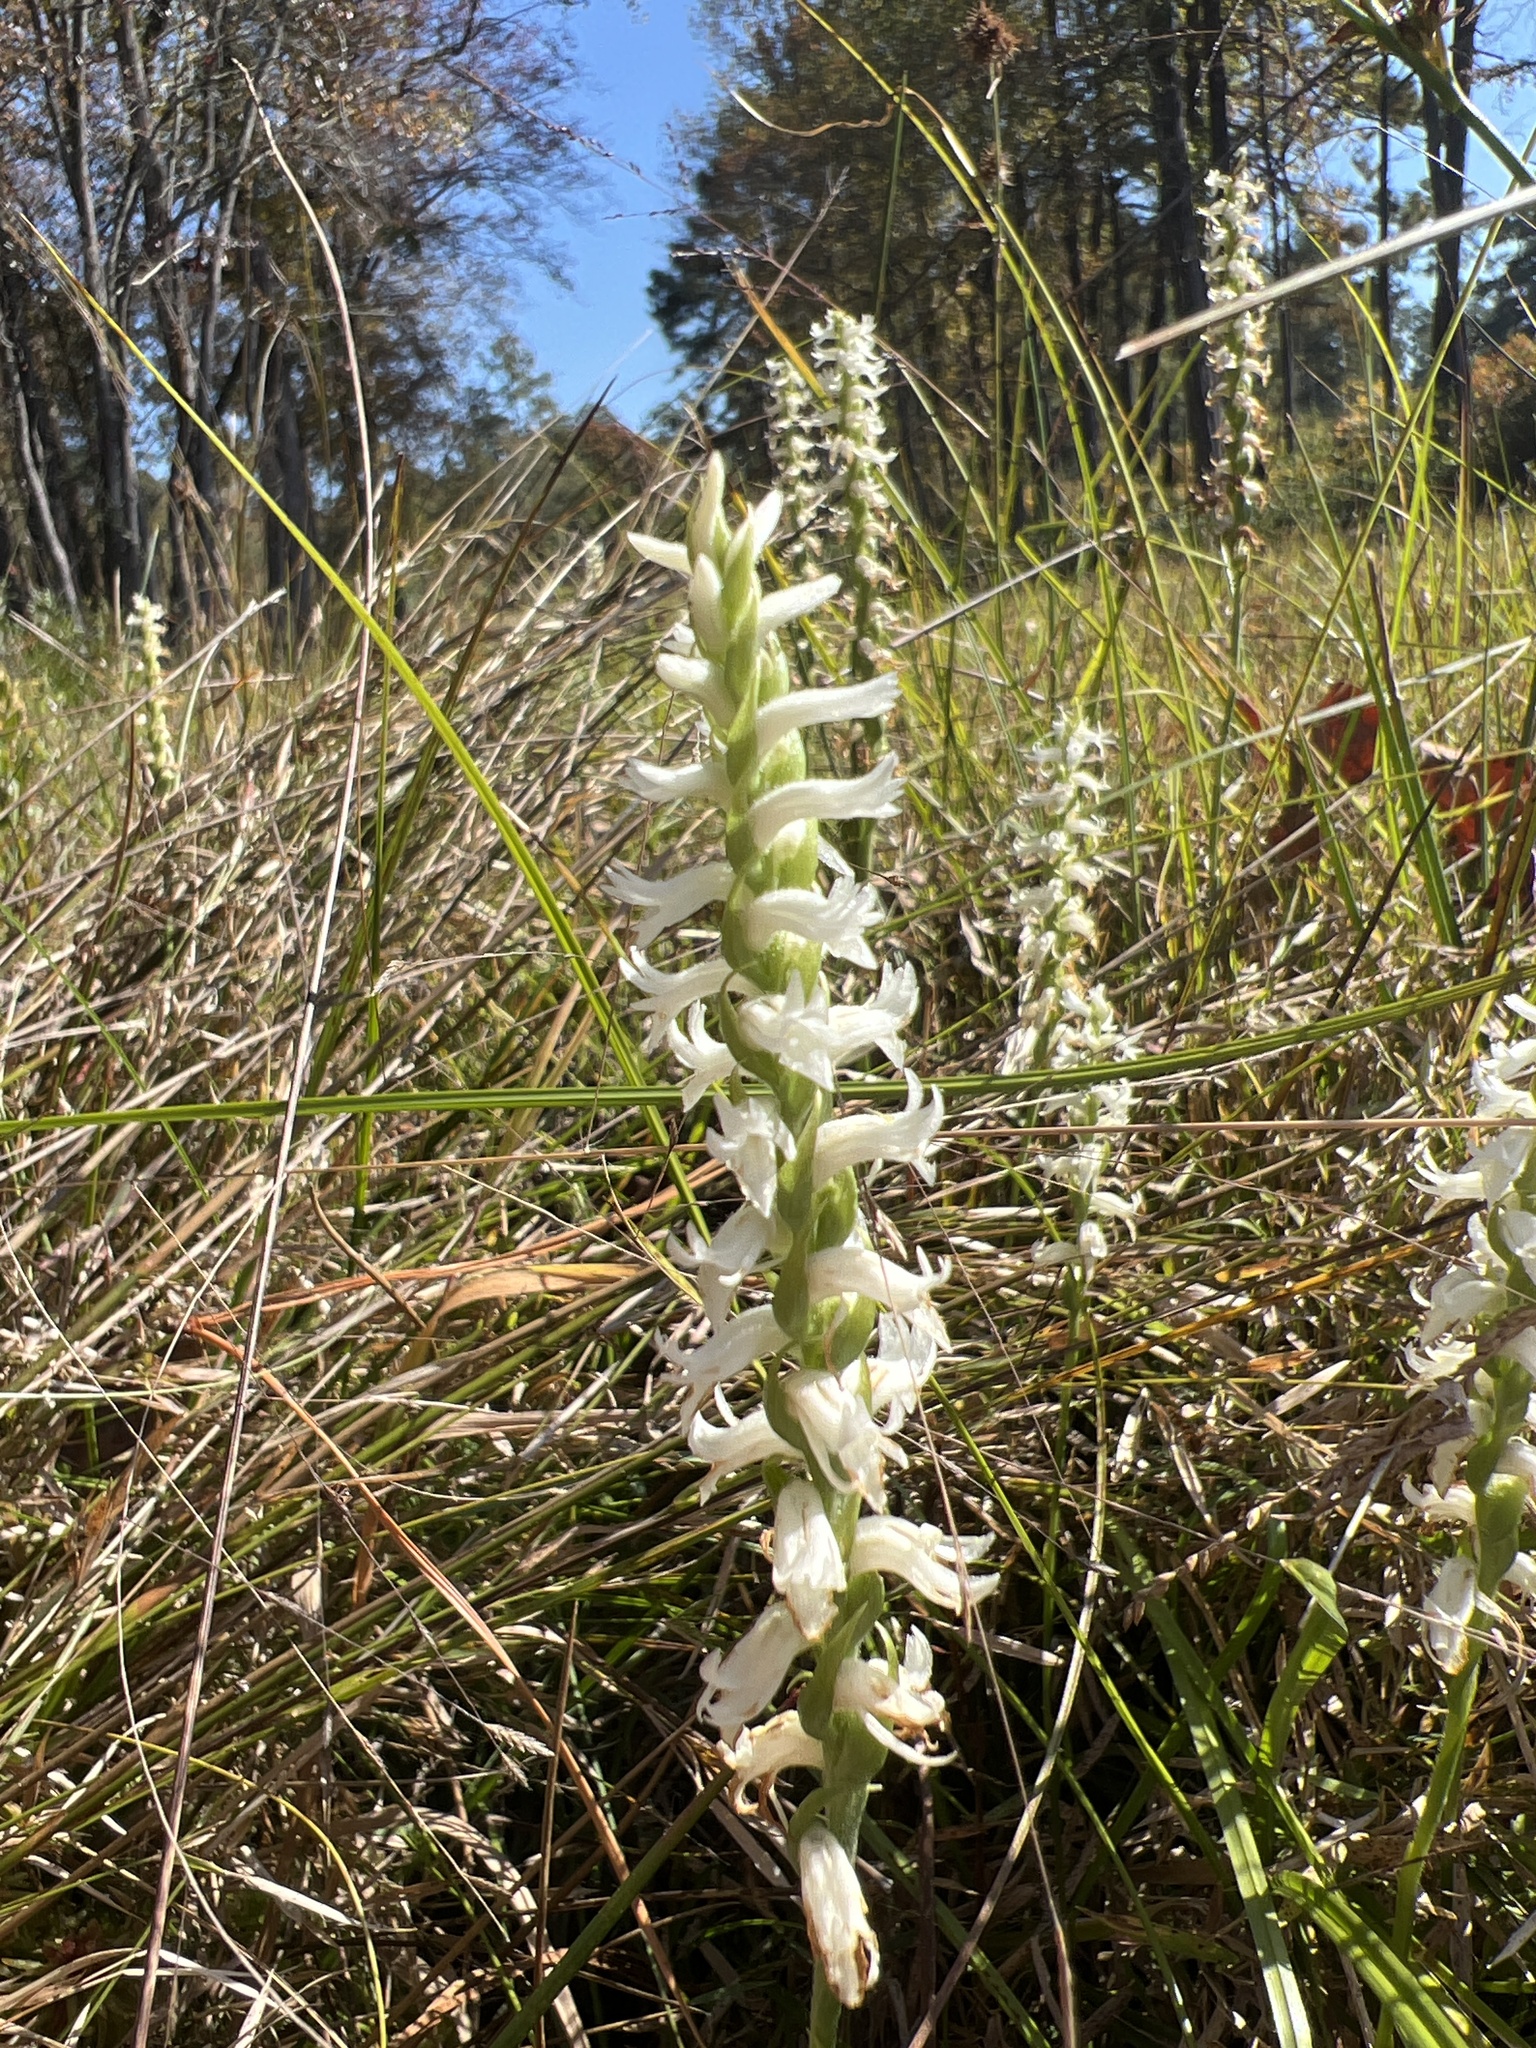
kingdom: Plantae
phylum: Tracheophyta
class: Liliopsida
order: Asparagales
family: Orchidaceae
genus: Spiranthes
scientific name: Spiranthes cernua
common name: Dropping ladies'-tresses
